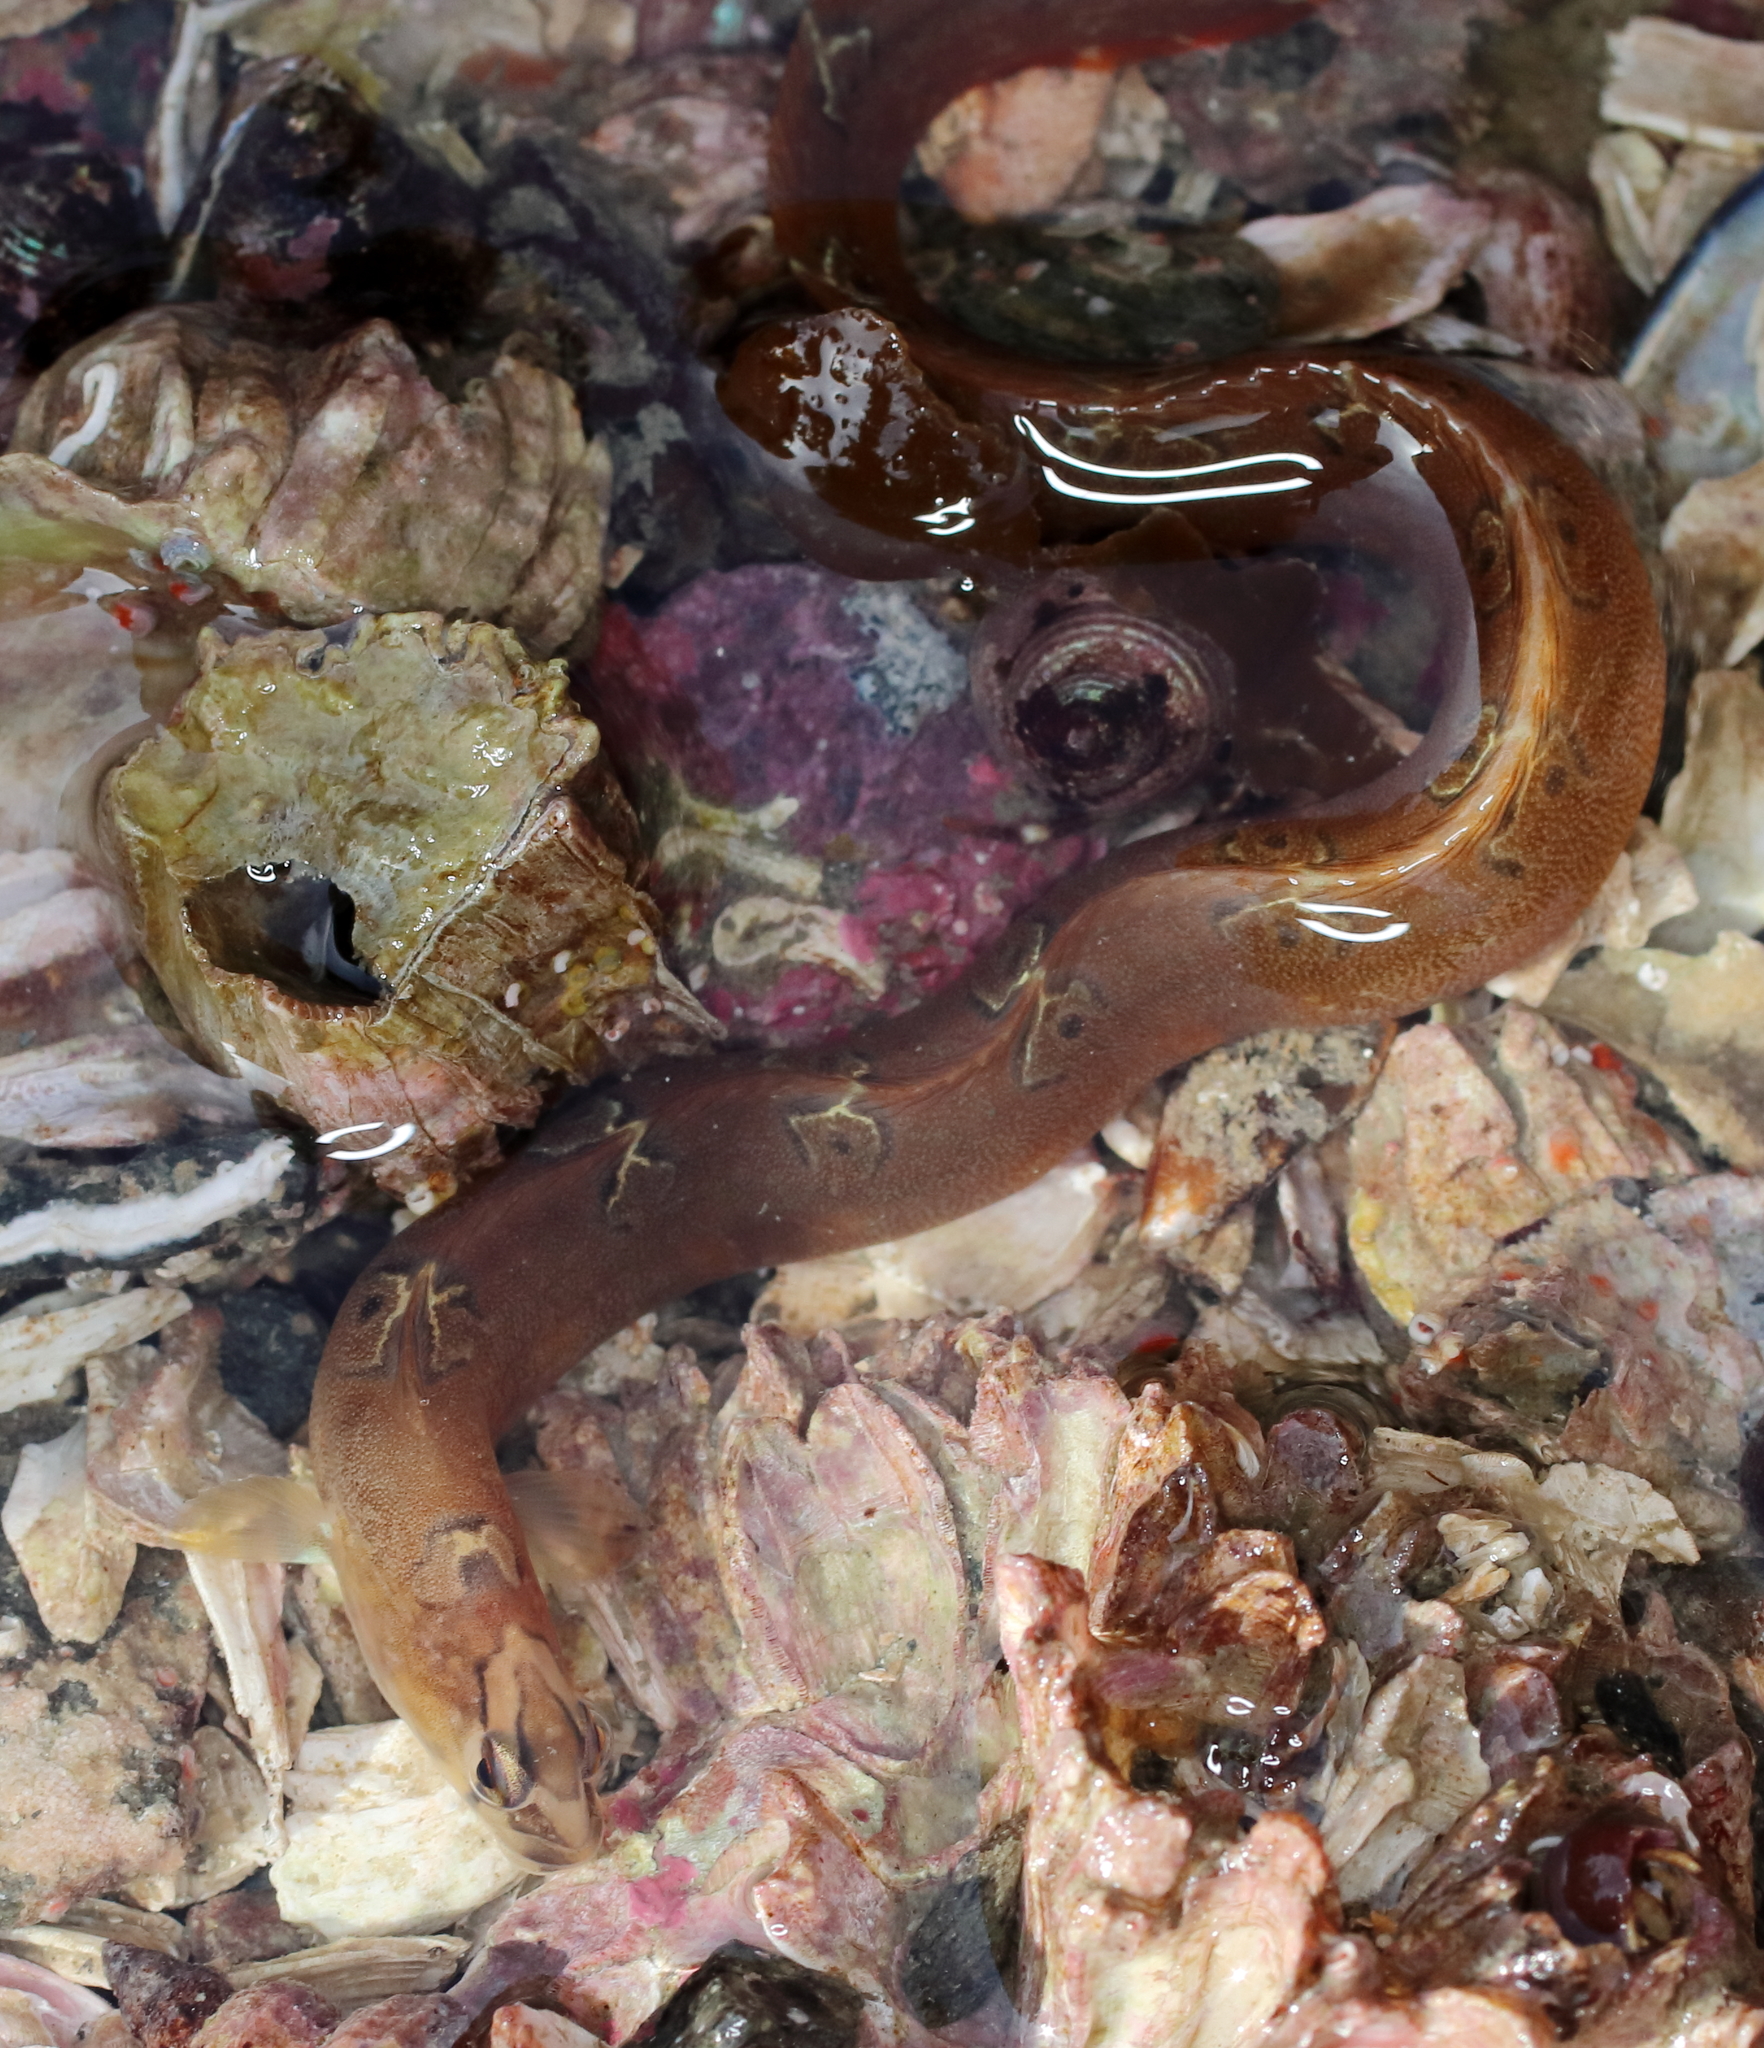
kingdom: Animalia
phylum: Chordata
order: Perciformes
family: Pholidae
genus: Pholis
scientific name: Pholis laeta
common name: Crescent gunnel
